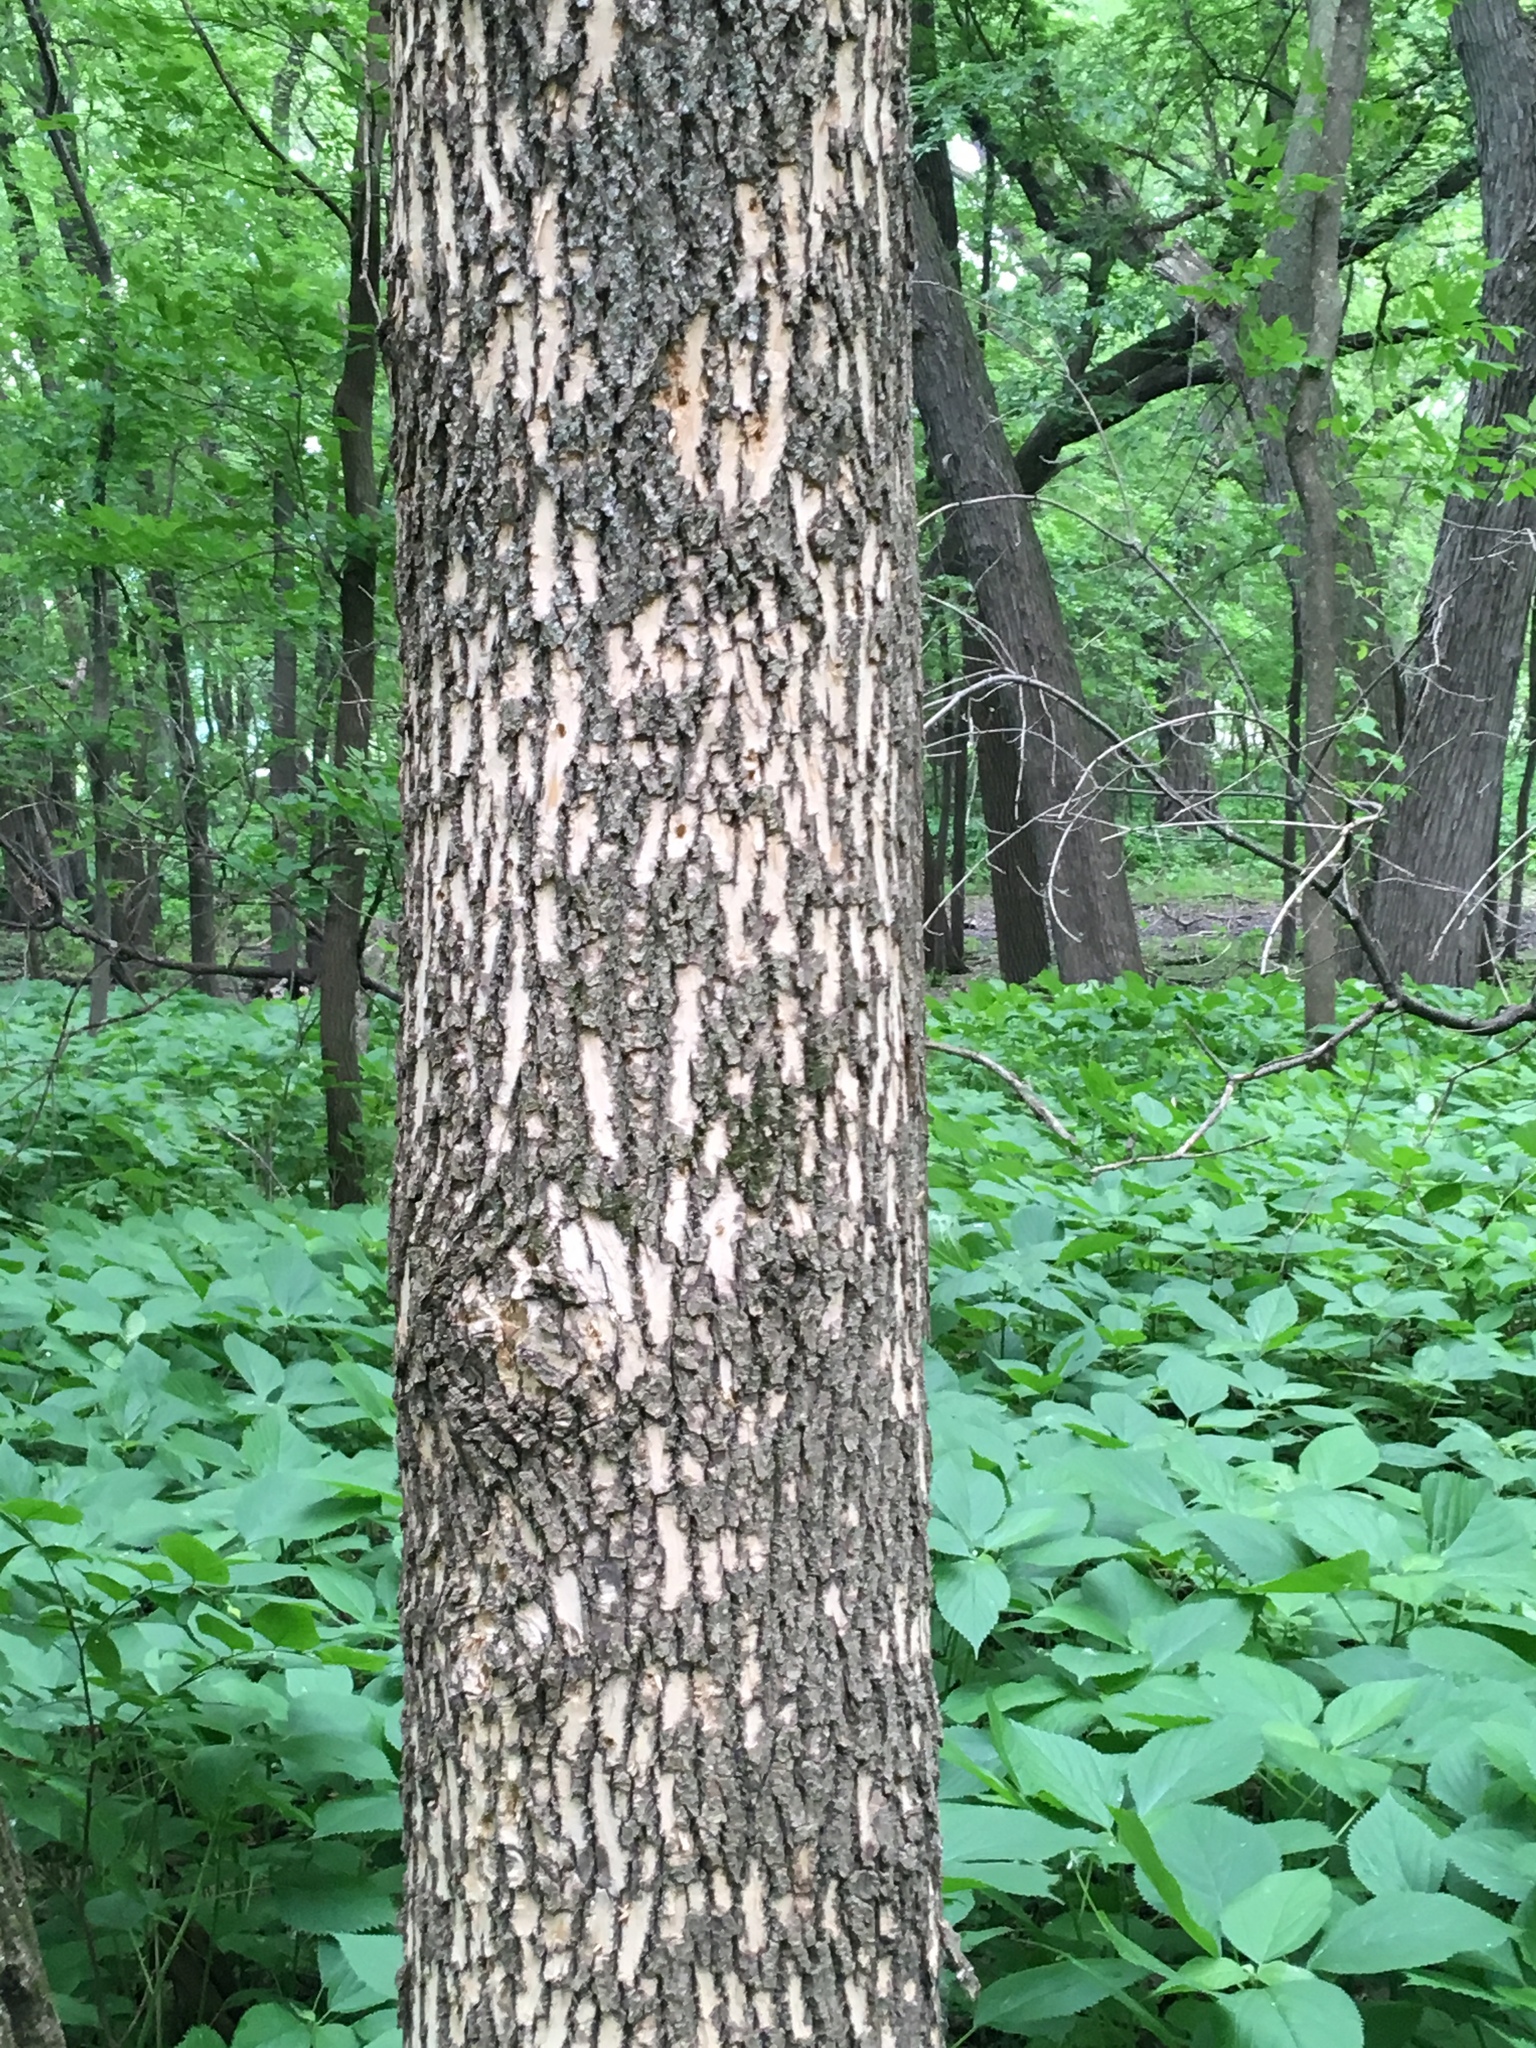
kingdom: Animalia
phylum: Arthropoda
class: Insecta
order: Coleoptera
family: Buprestidae
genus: Agrilus
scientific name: Agrilus planipennis
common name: Emerald ash borer
